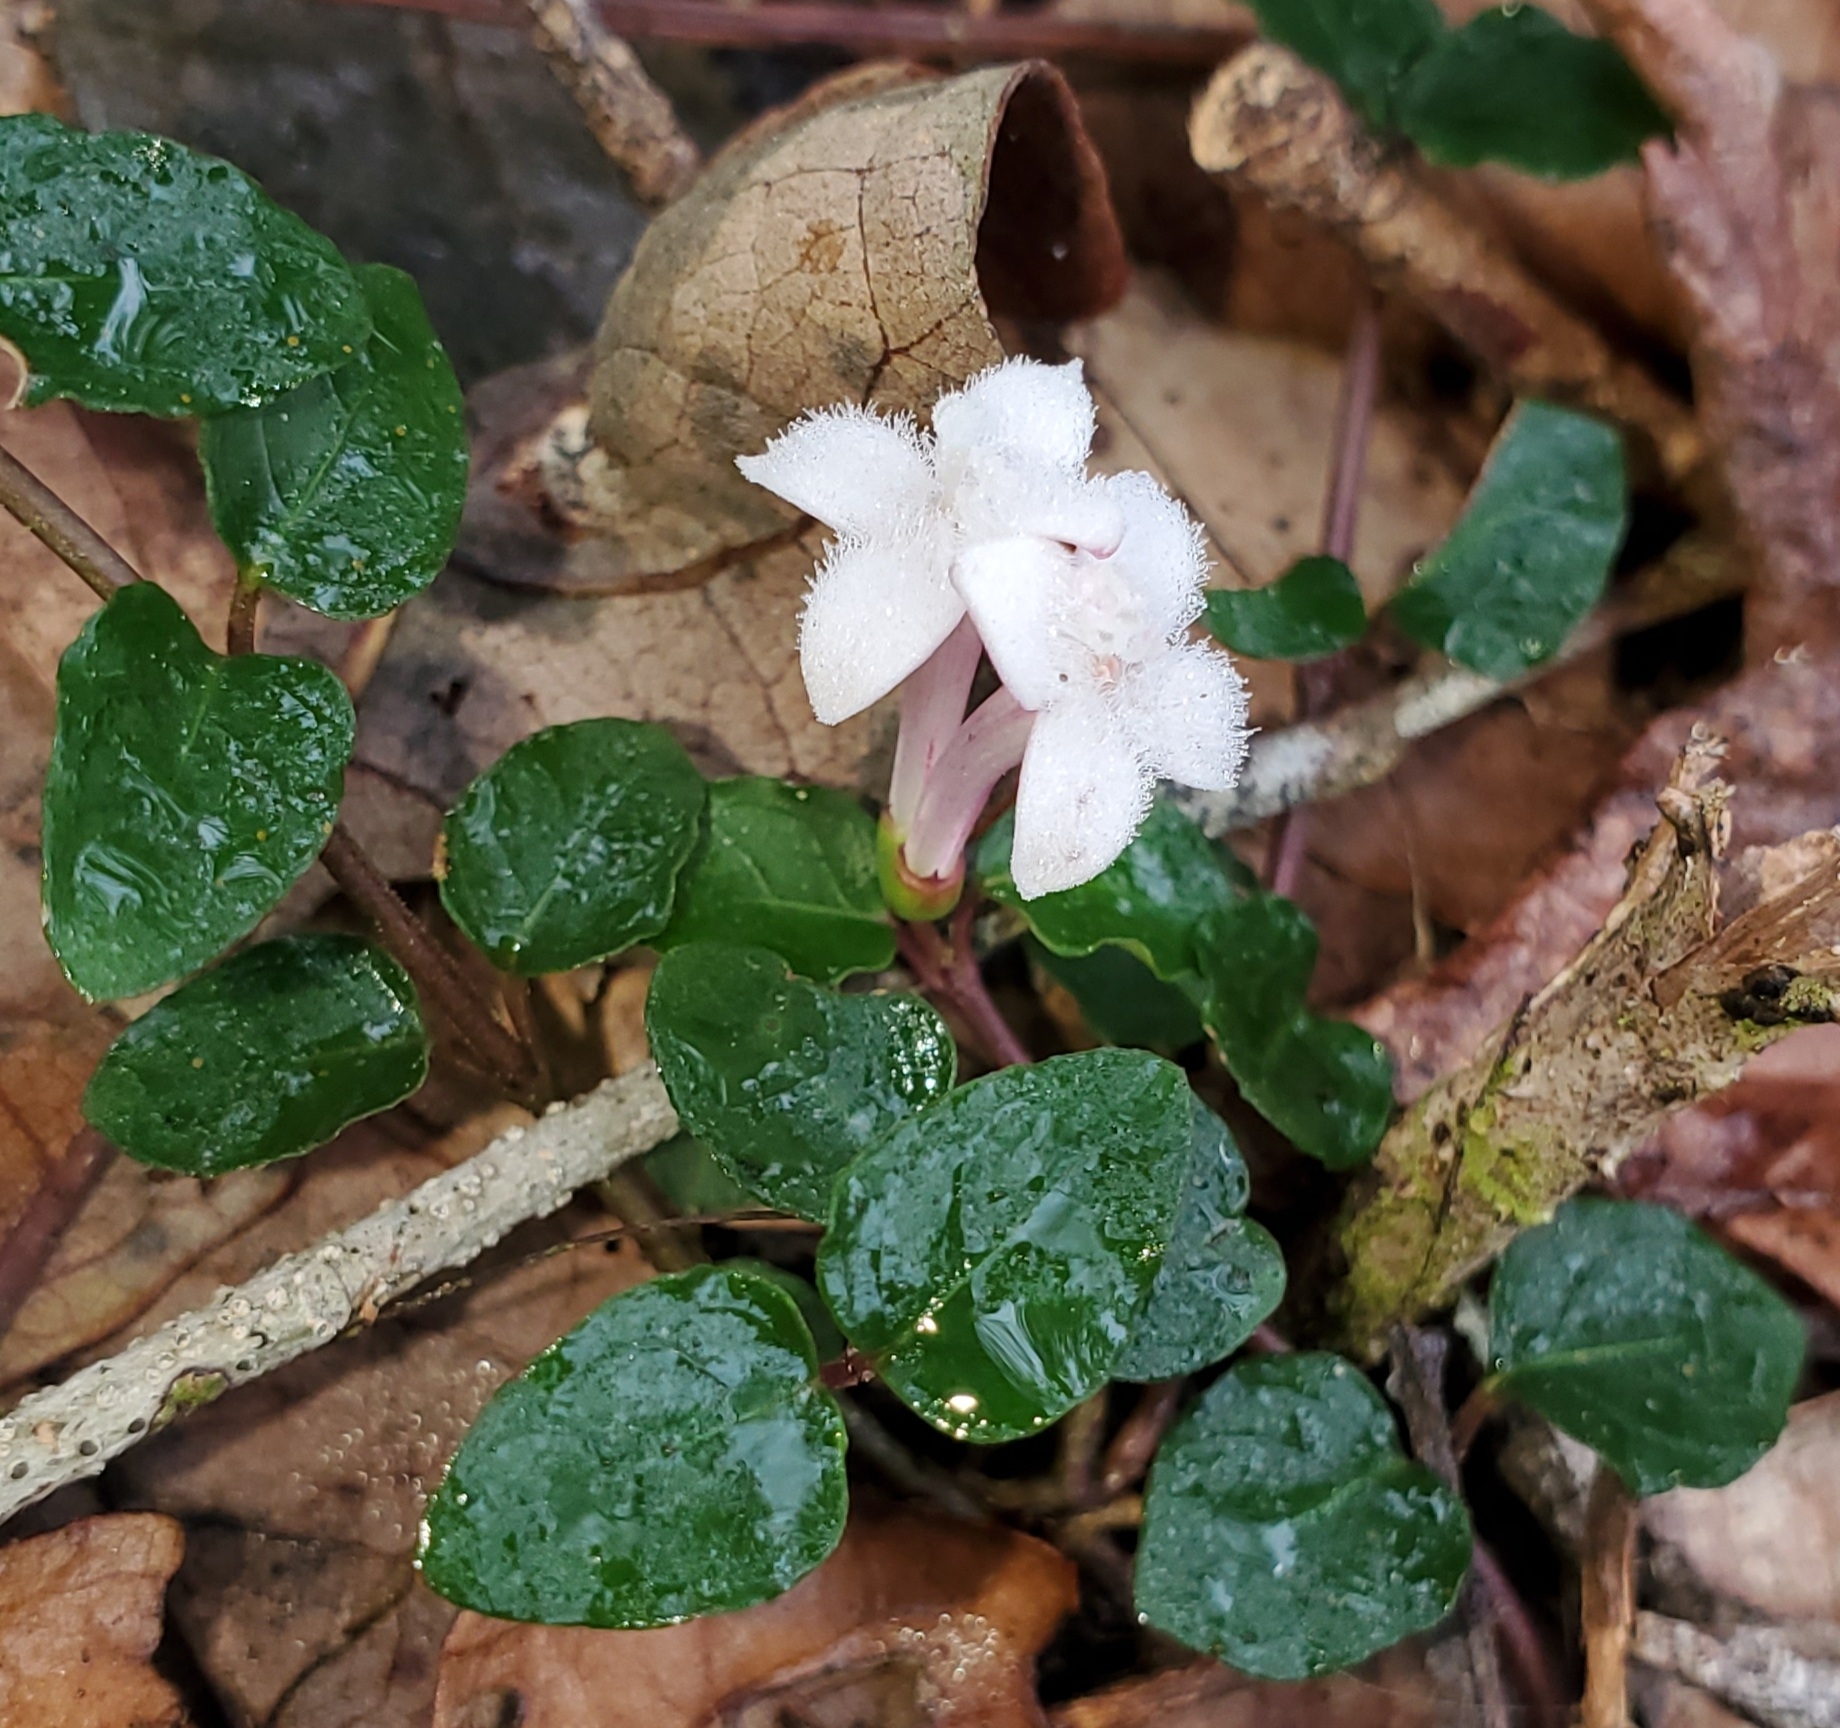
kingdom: Plantae
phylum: Tracheophyta
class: Magnoliopsida
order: Gentianales
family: Rubiaceae
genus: Mitchella
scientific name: Mitchella repens
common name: Partridge-berry
